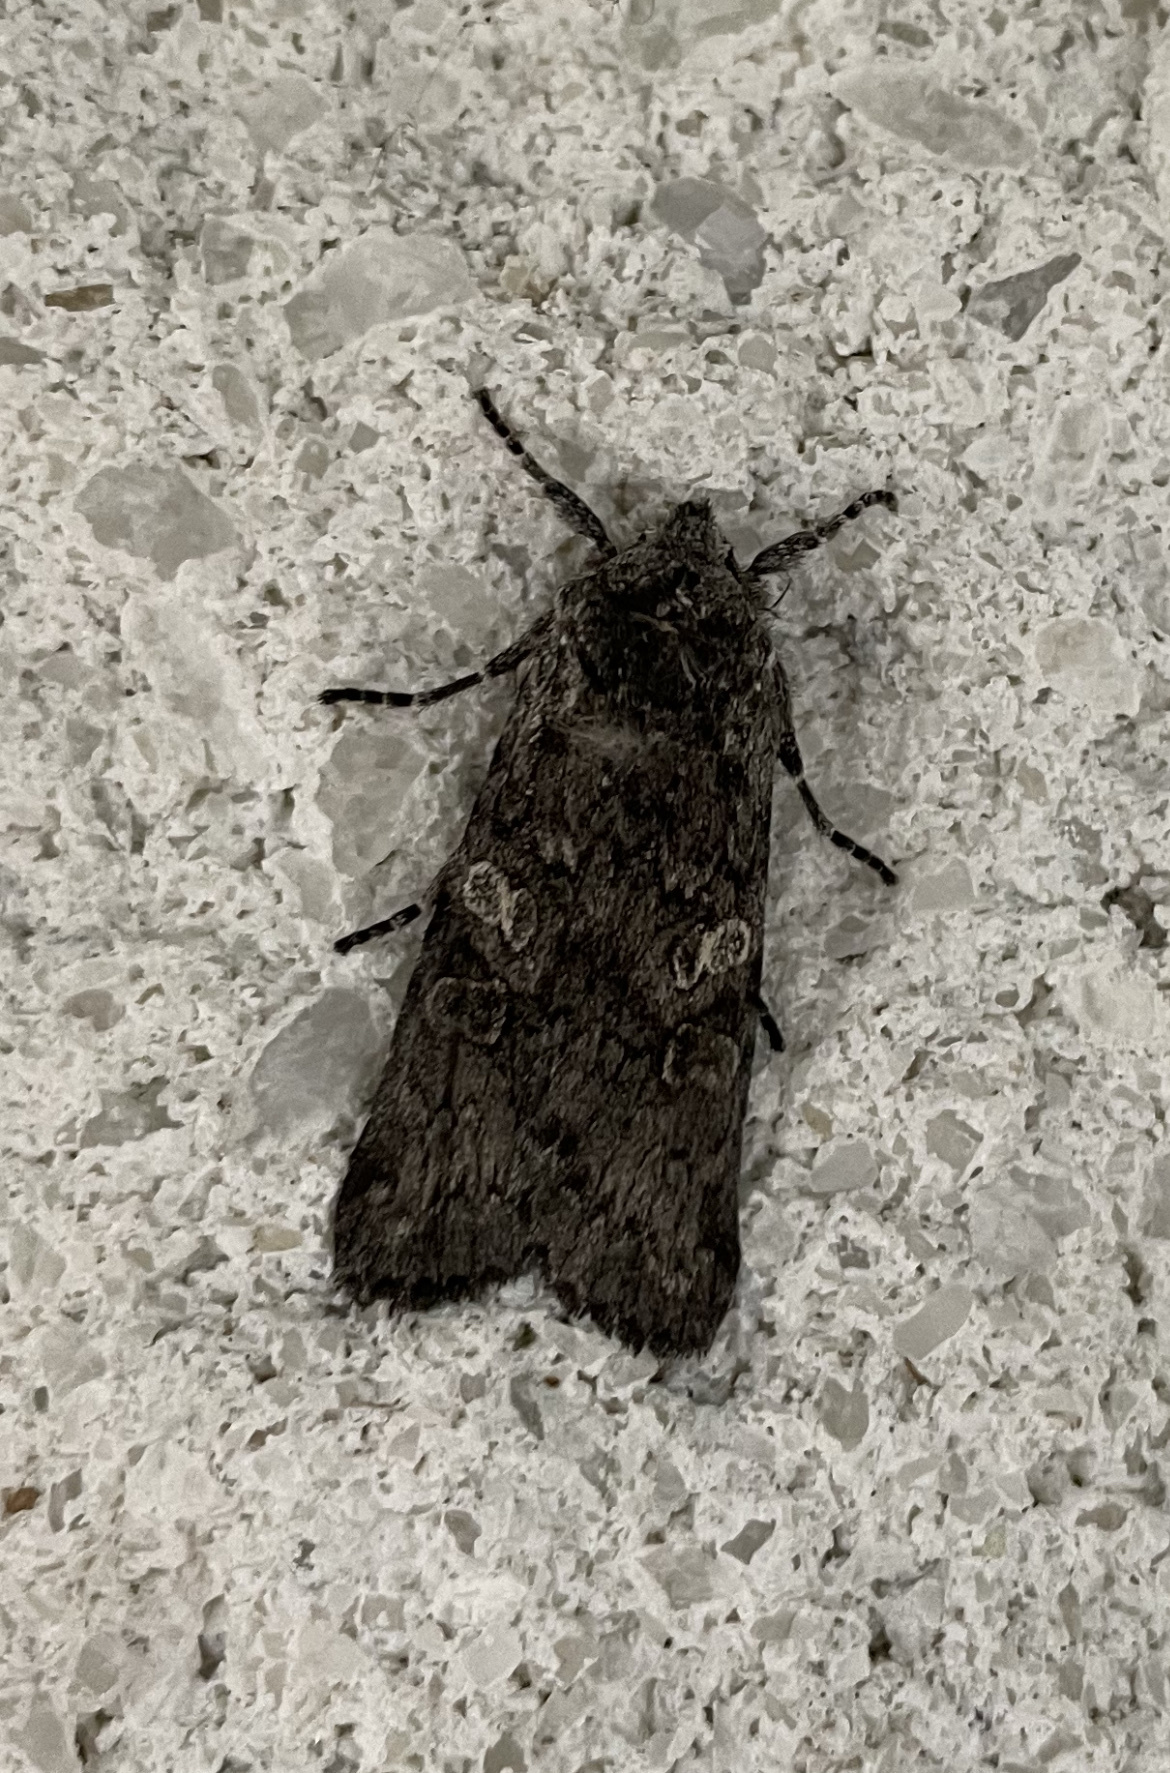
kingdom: Animalia
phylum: Arthropoda
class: Insecta
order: Lepidoptera
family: Noctuidae
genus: Lithophane
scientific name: Lithophane grotei
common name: Grote's pinion moth
